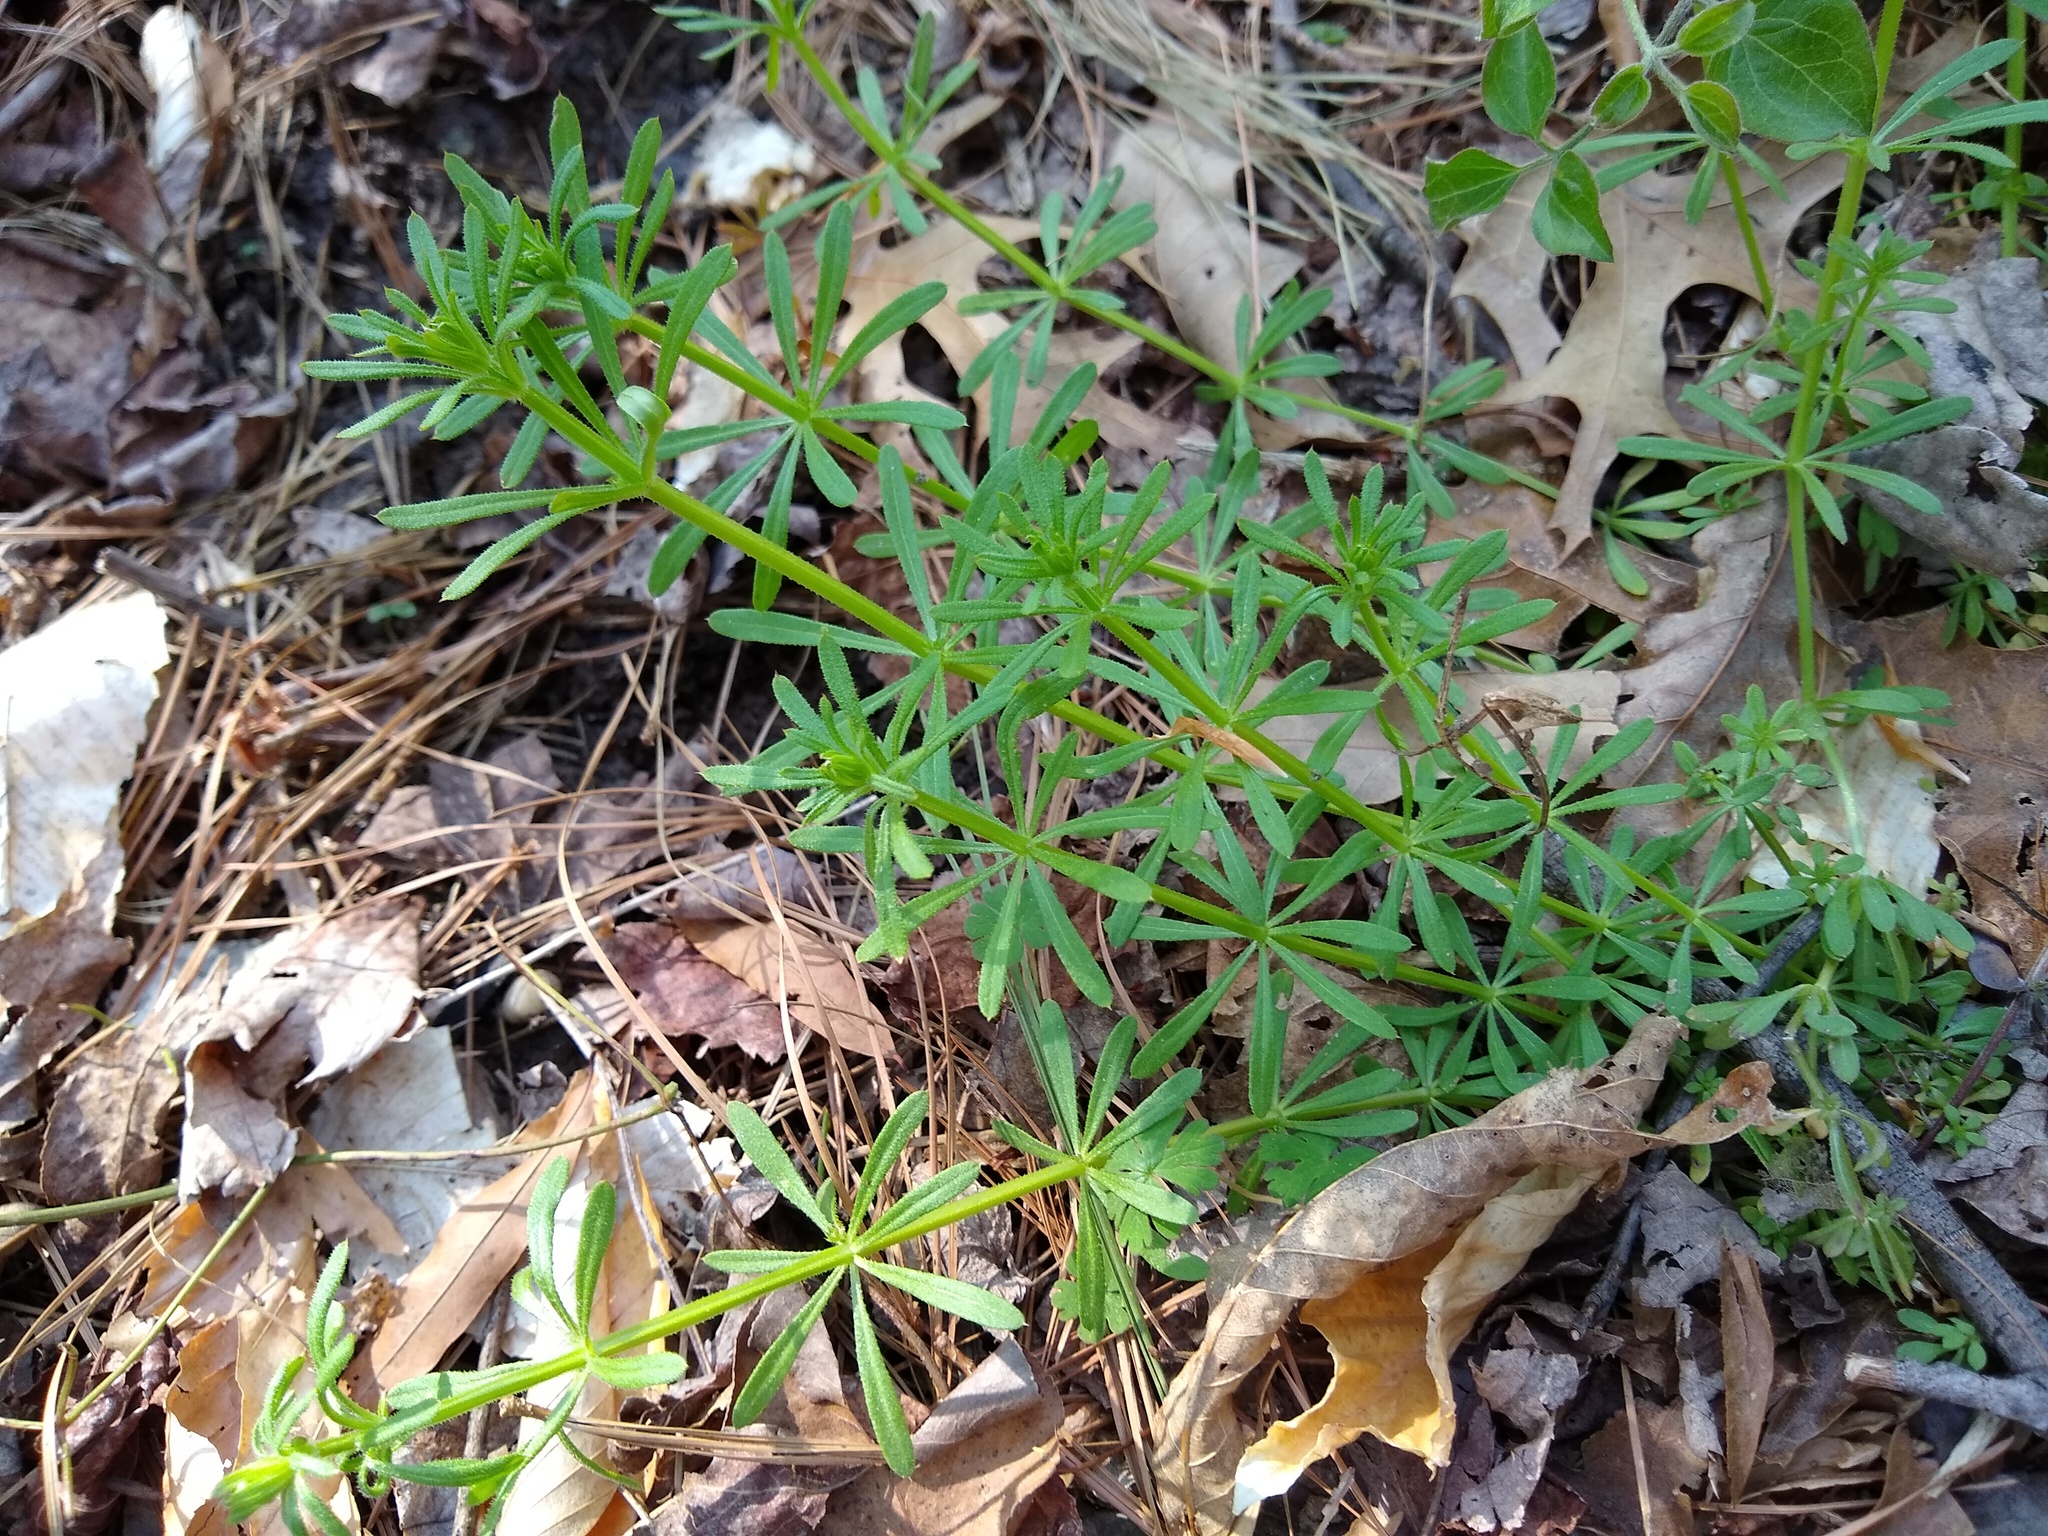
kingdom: Plantae
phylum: Tracheophyta
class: Magnoliopsida
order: Gentianales
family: Rubiaceae
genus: Galium
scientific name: Galium aparine
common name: Cleavers
